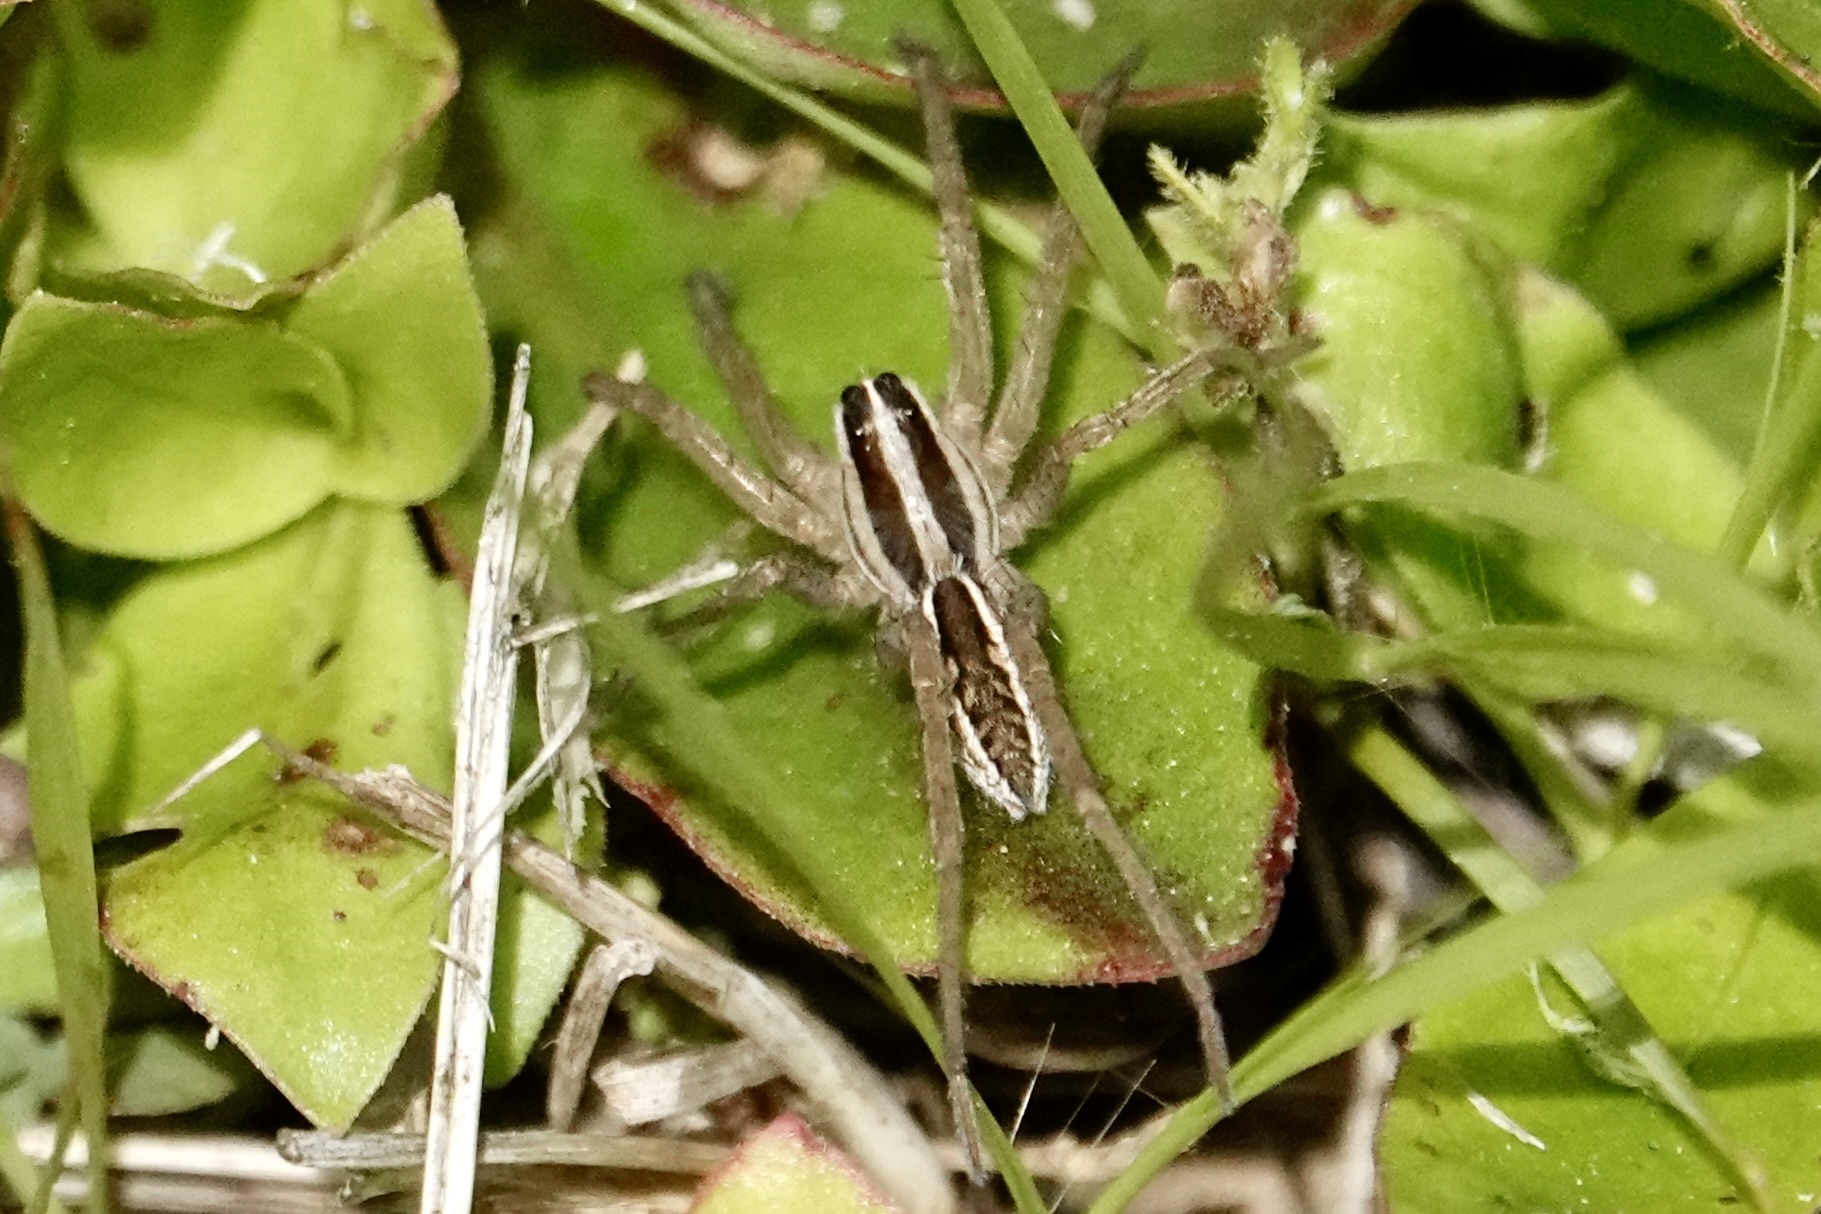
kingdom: Animalia
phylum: Arthropoda
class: Arachnida
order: Araneae
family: Lycosidae
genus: Rabidosa
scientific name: Rabidosa rabida
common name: Rabid wolf spider
